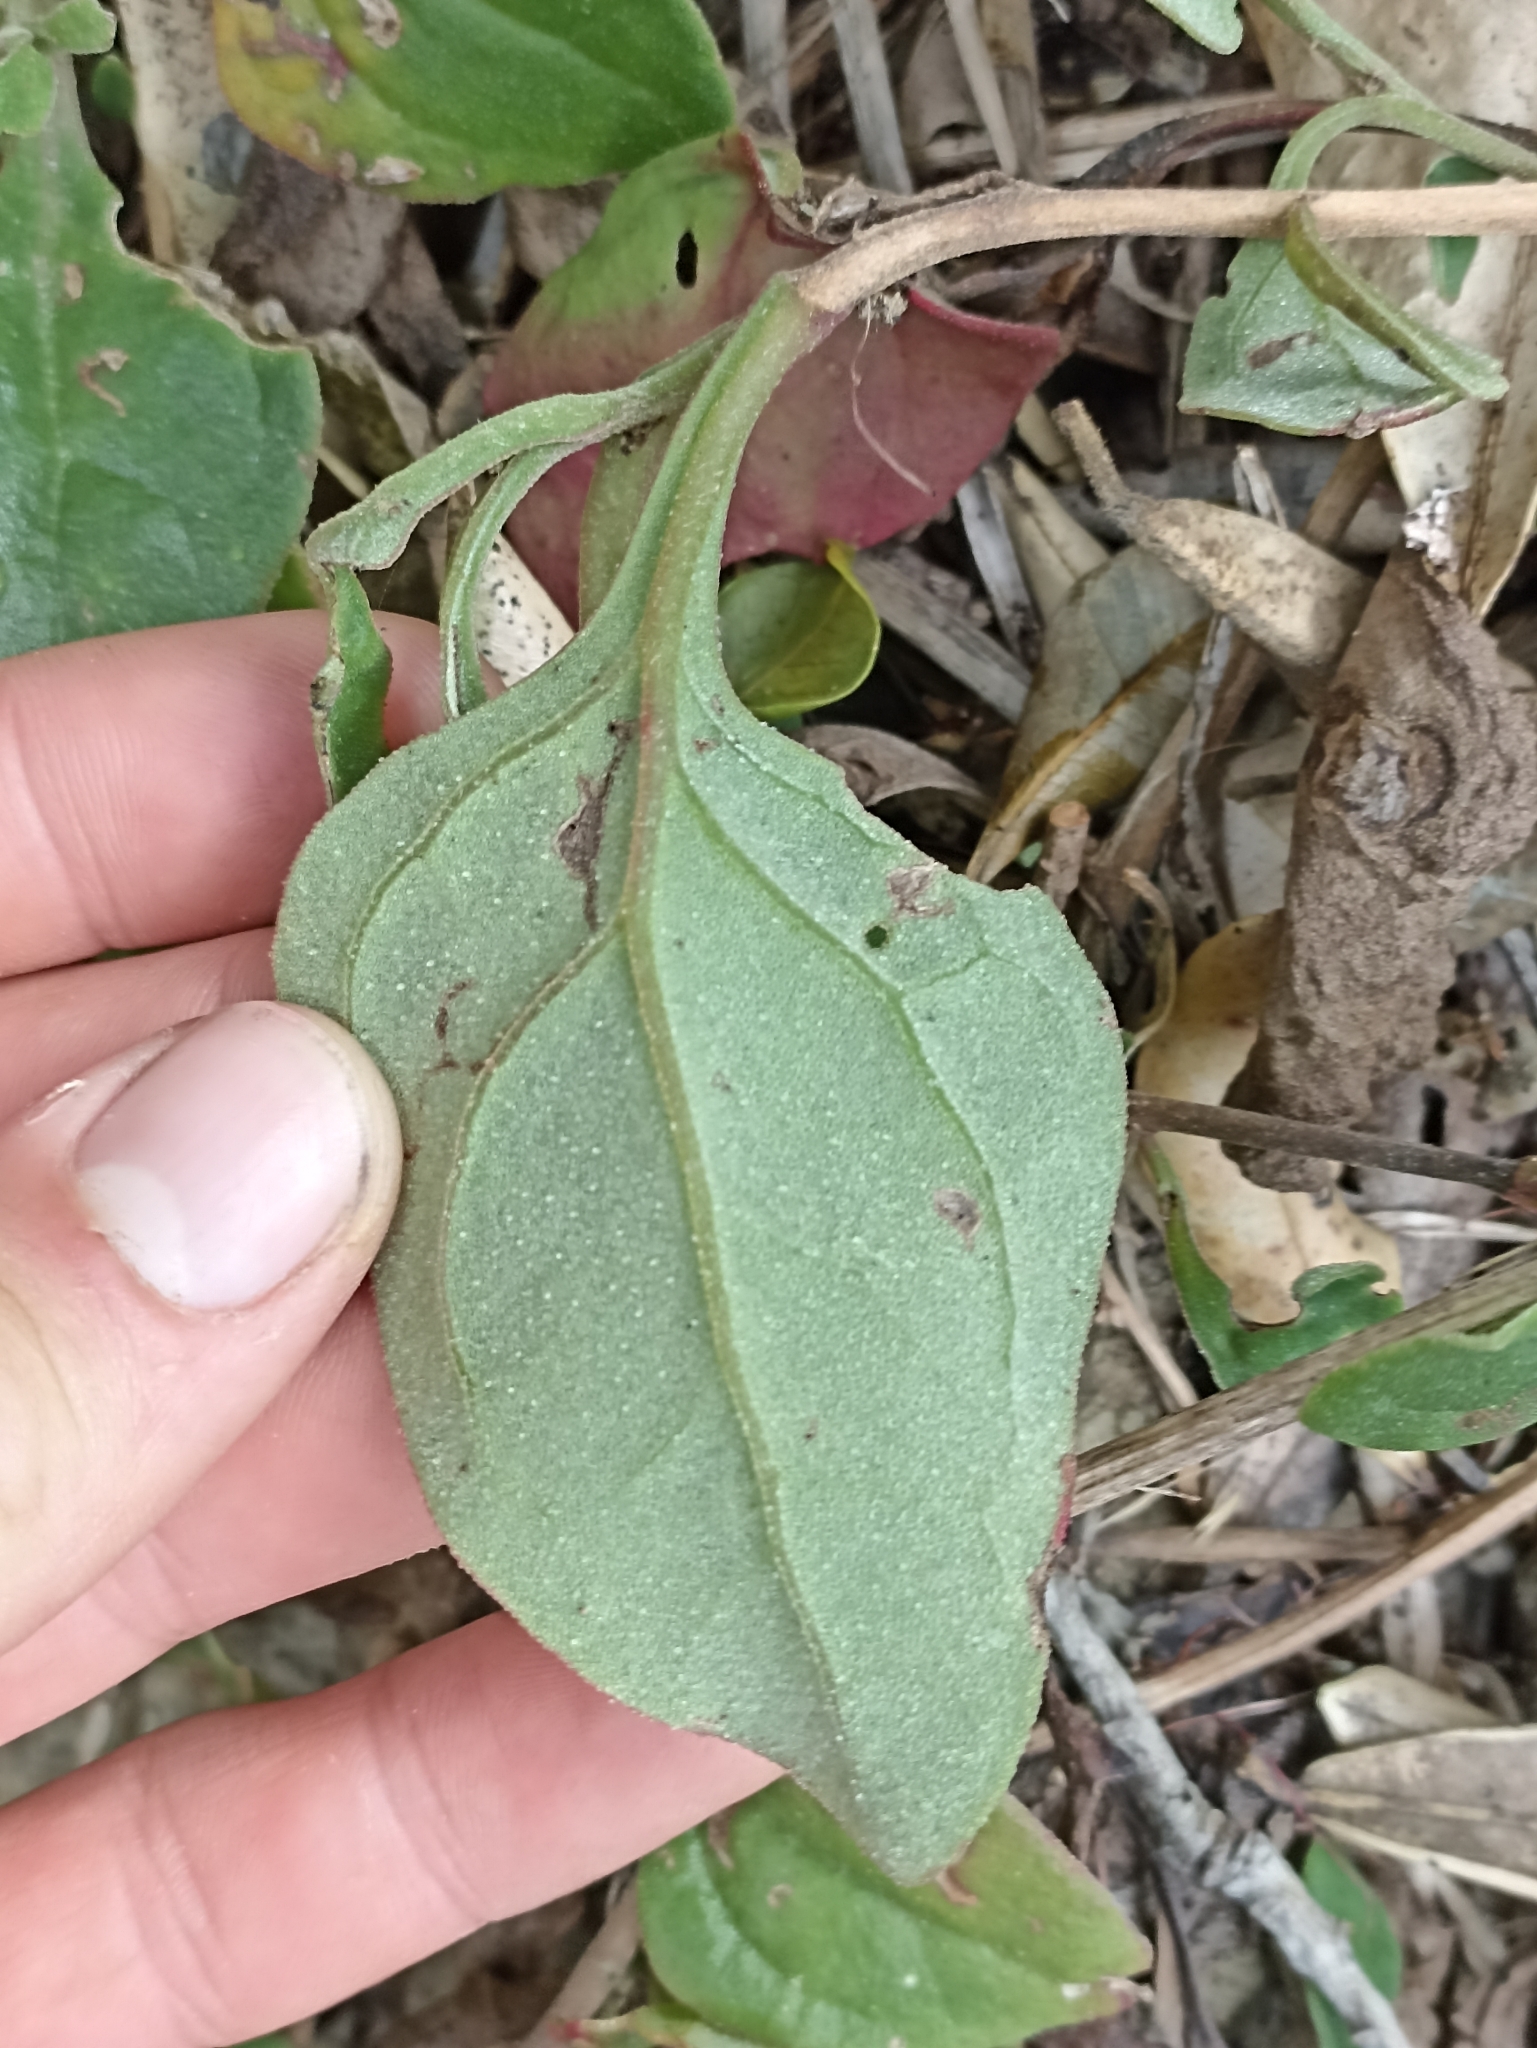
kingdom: Plantae
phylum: Tracheophyta
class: Magnoliopsida
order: Caryophyllales
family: Aizoaceae
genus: Tetragonia
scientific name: Tetragonia implexicoma
